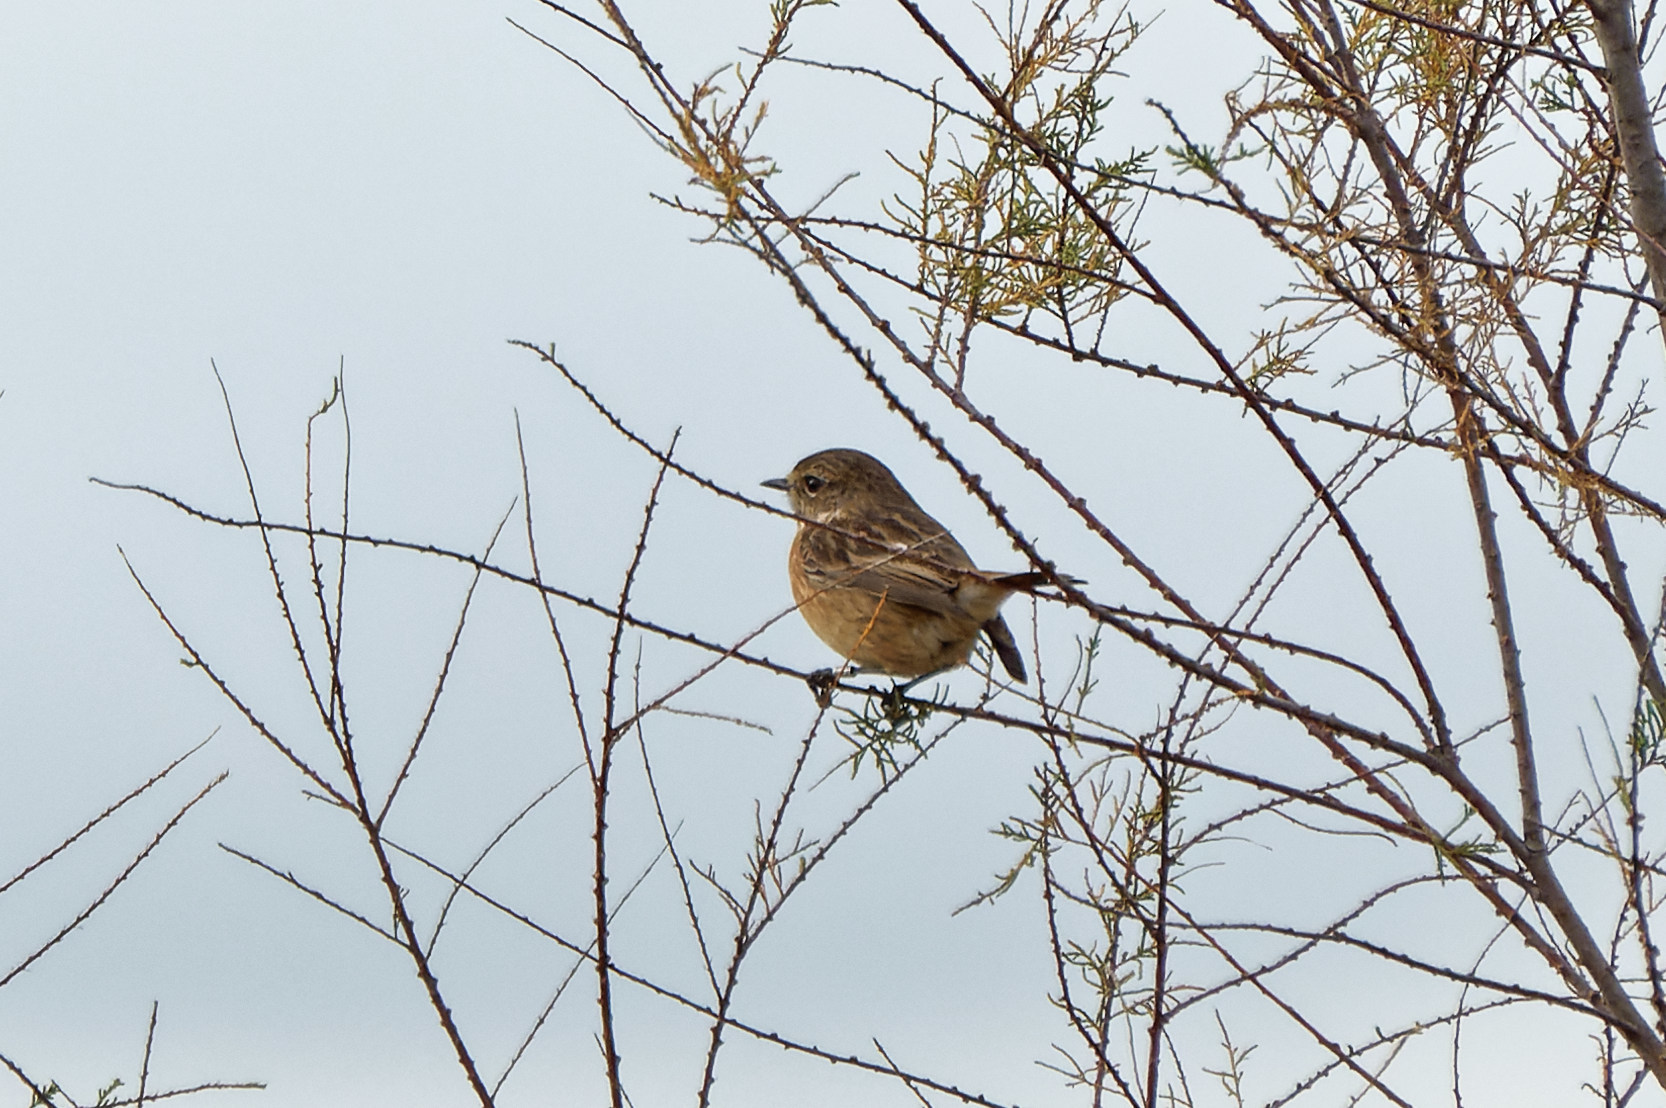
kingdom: Animalia
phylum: Chordata
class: Aves
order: Passeriformes
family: Muscicapidae
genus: Saxicola
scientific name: Saxicola rubicola
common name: European stonechat
